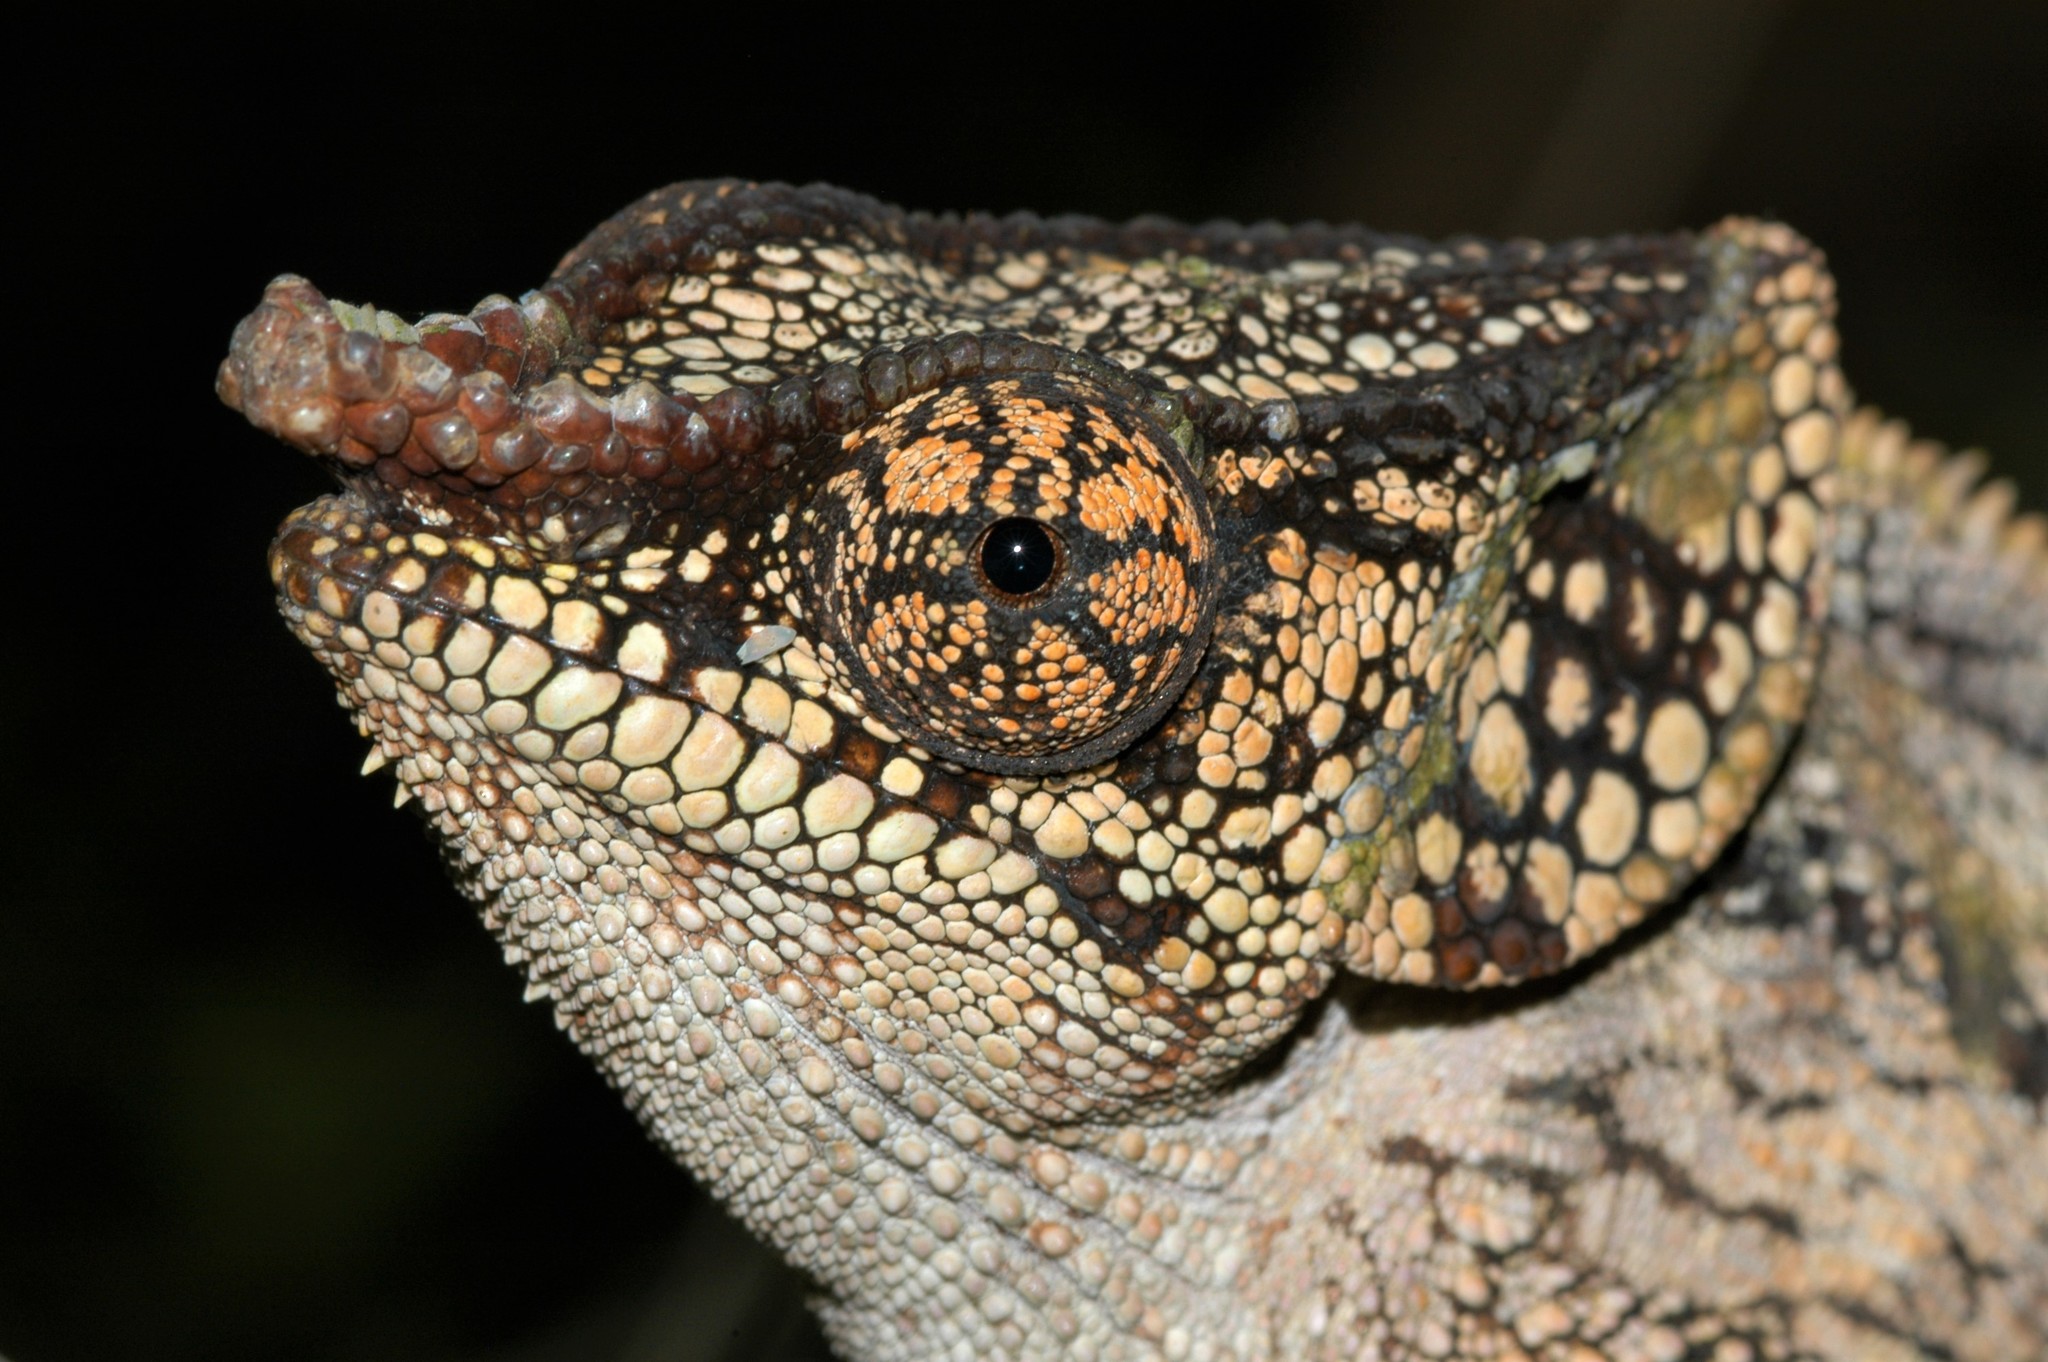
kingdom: Animalia
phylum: Chordata
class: Squamata
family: Chamaeleonidae
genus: Calumma
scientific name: Calumma brevicorne
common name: Short-horned chameleon
